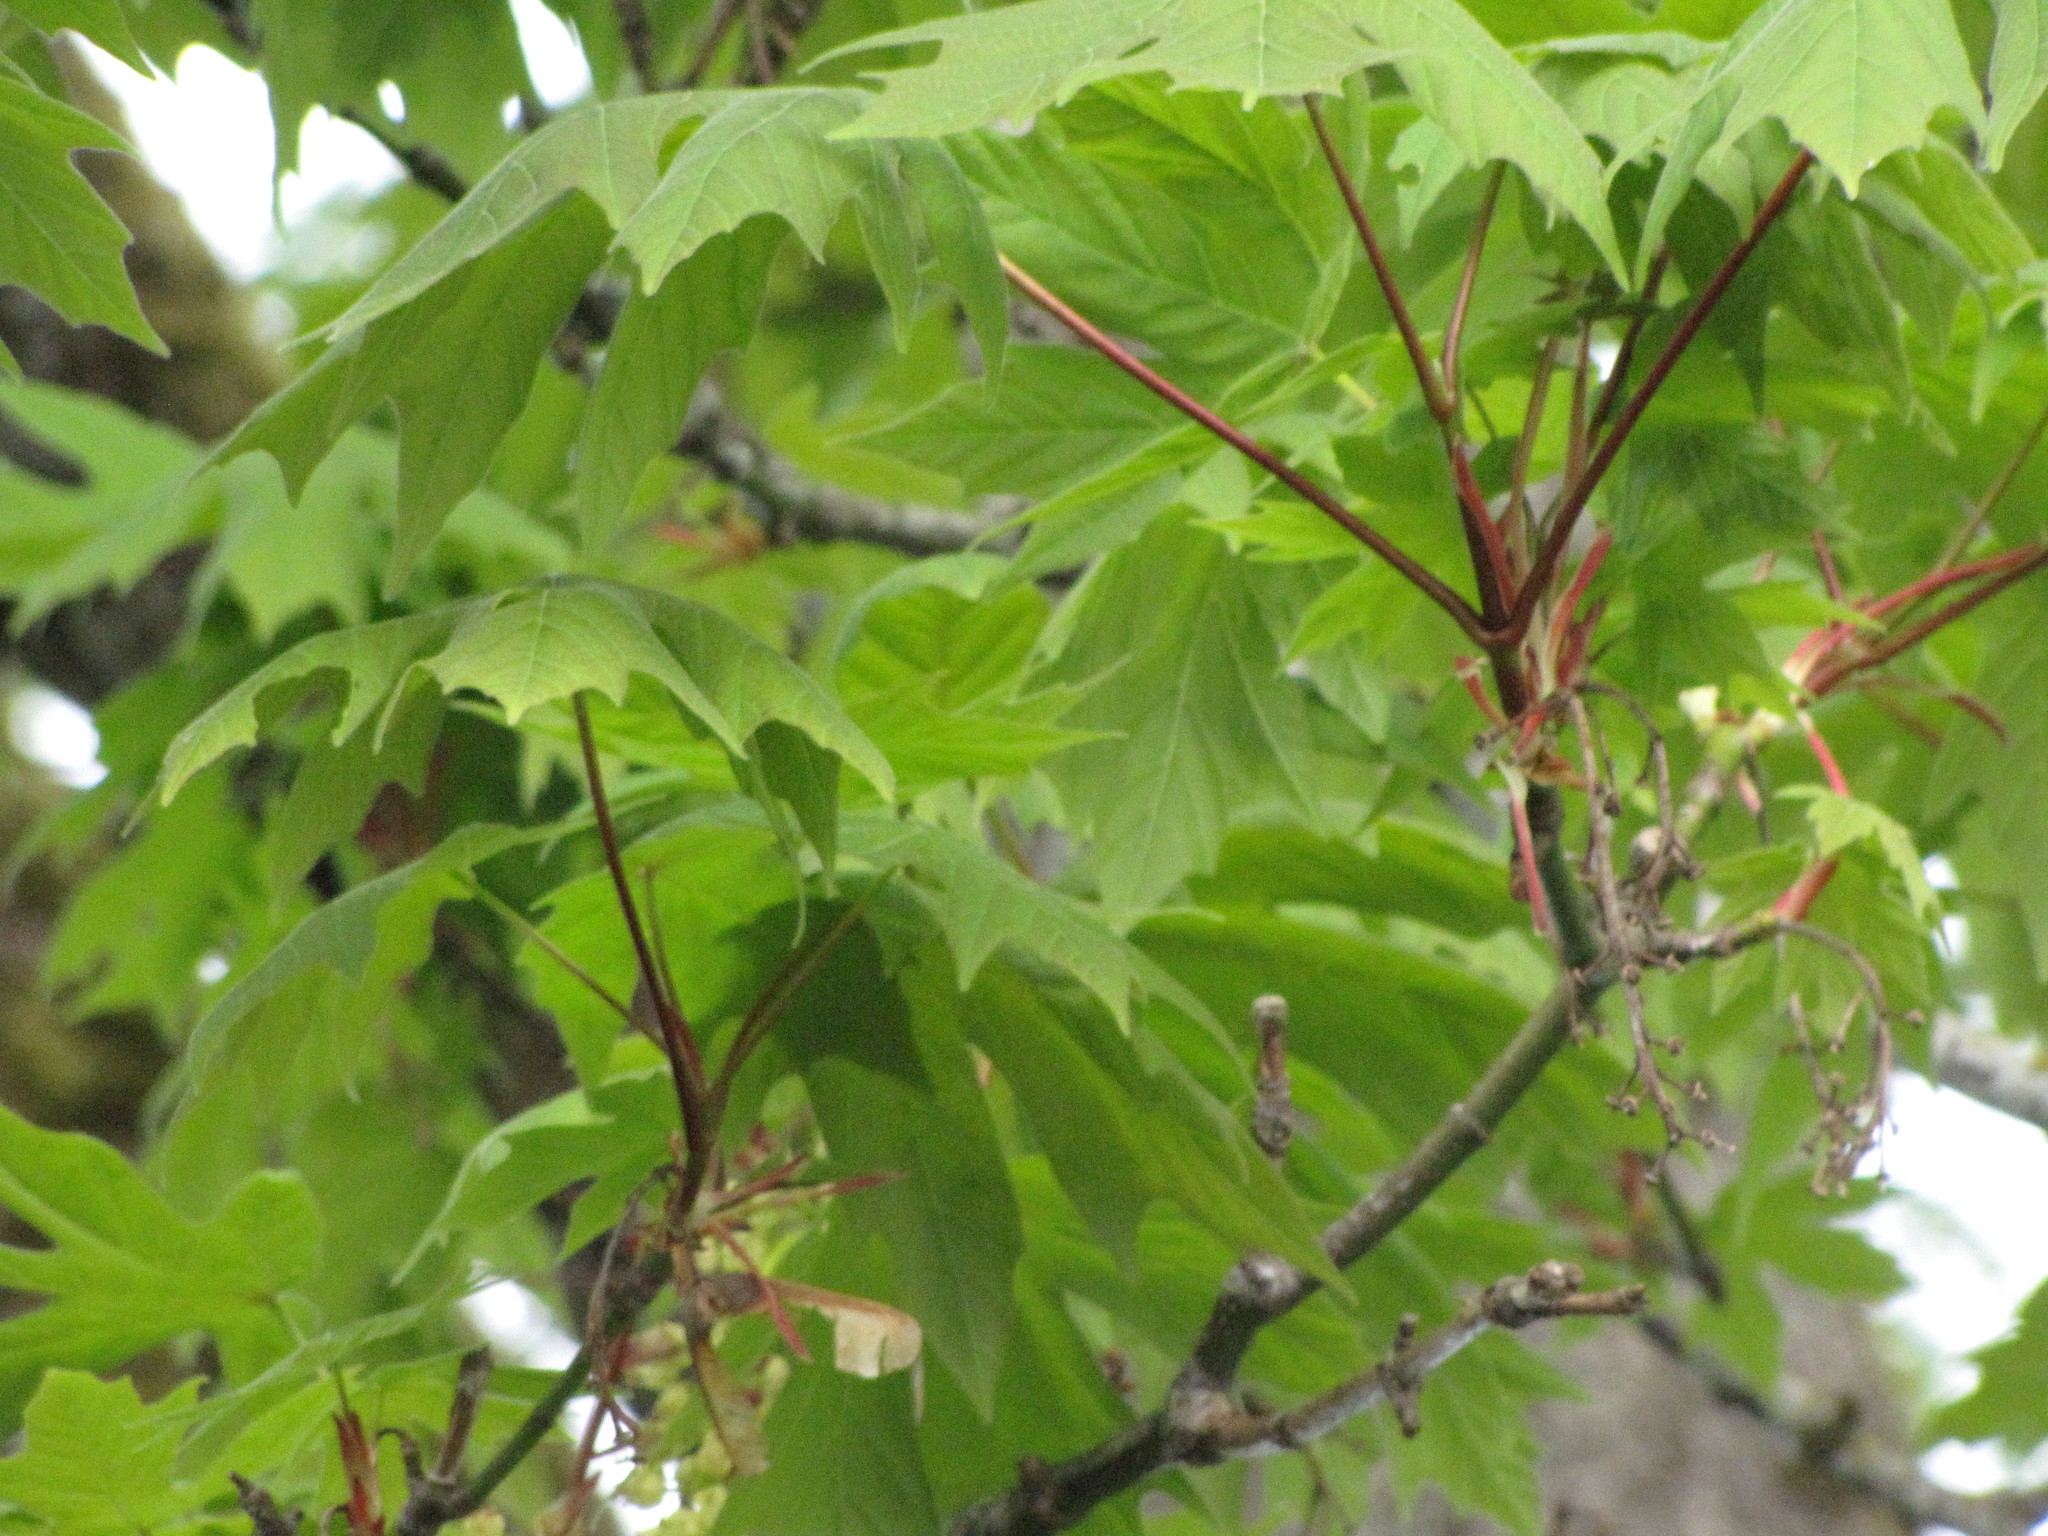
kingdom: Plantae
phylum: Tracheophyta
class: Magnoliopsida
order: Sapindales
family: Sapindaceae
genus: Acer
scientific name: Acer macrophyllum
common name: Oregon maple
